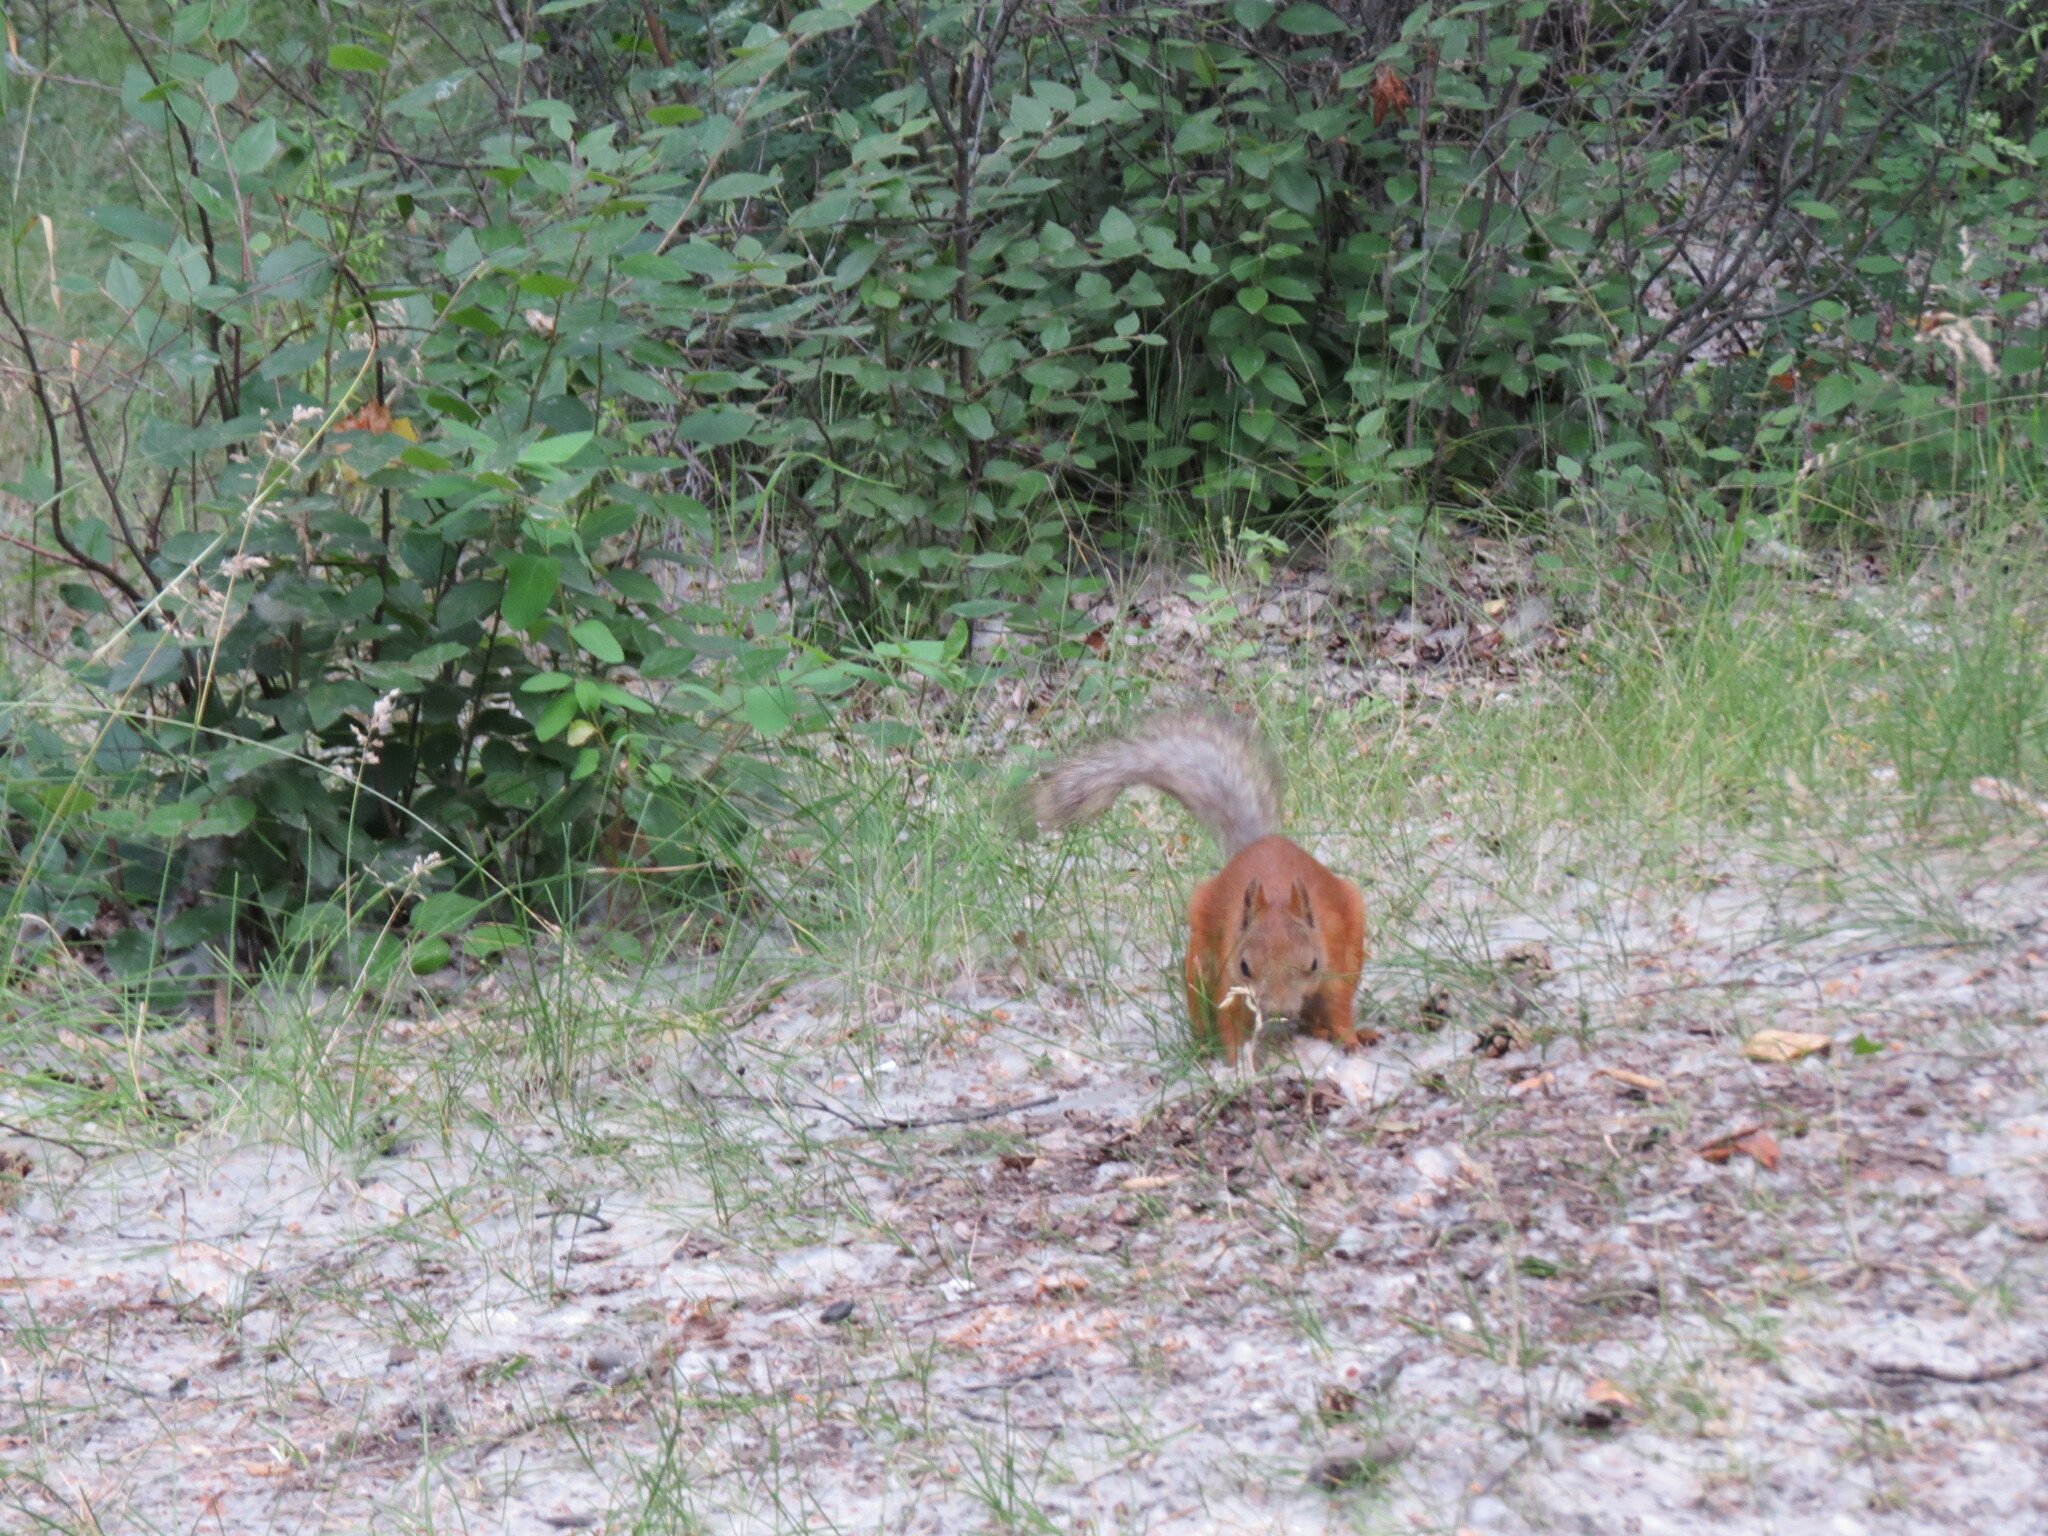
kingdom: Animalia
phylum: Chordata
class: Mammalia
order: Rodentia
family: Sciuridae
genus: Sciurus
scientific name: Sciurus vulgaris
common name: Eurasian red squirrel
